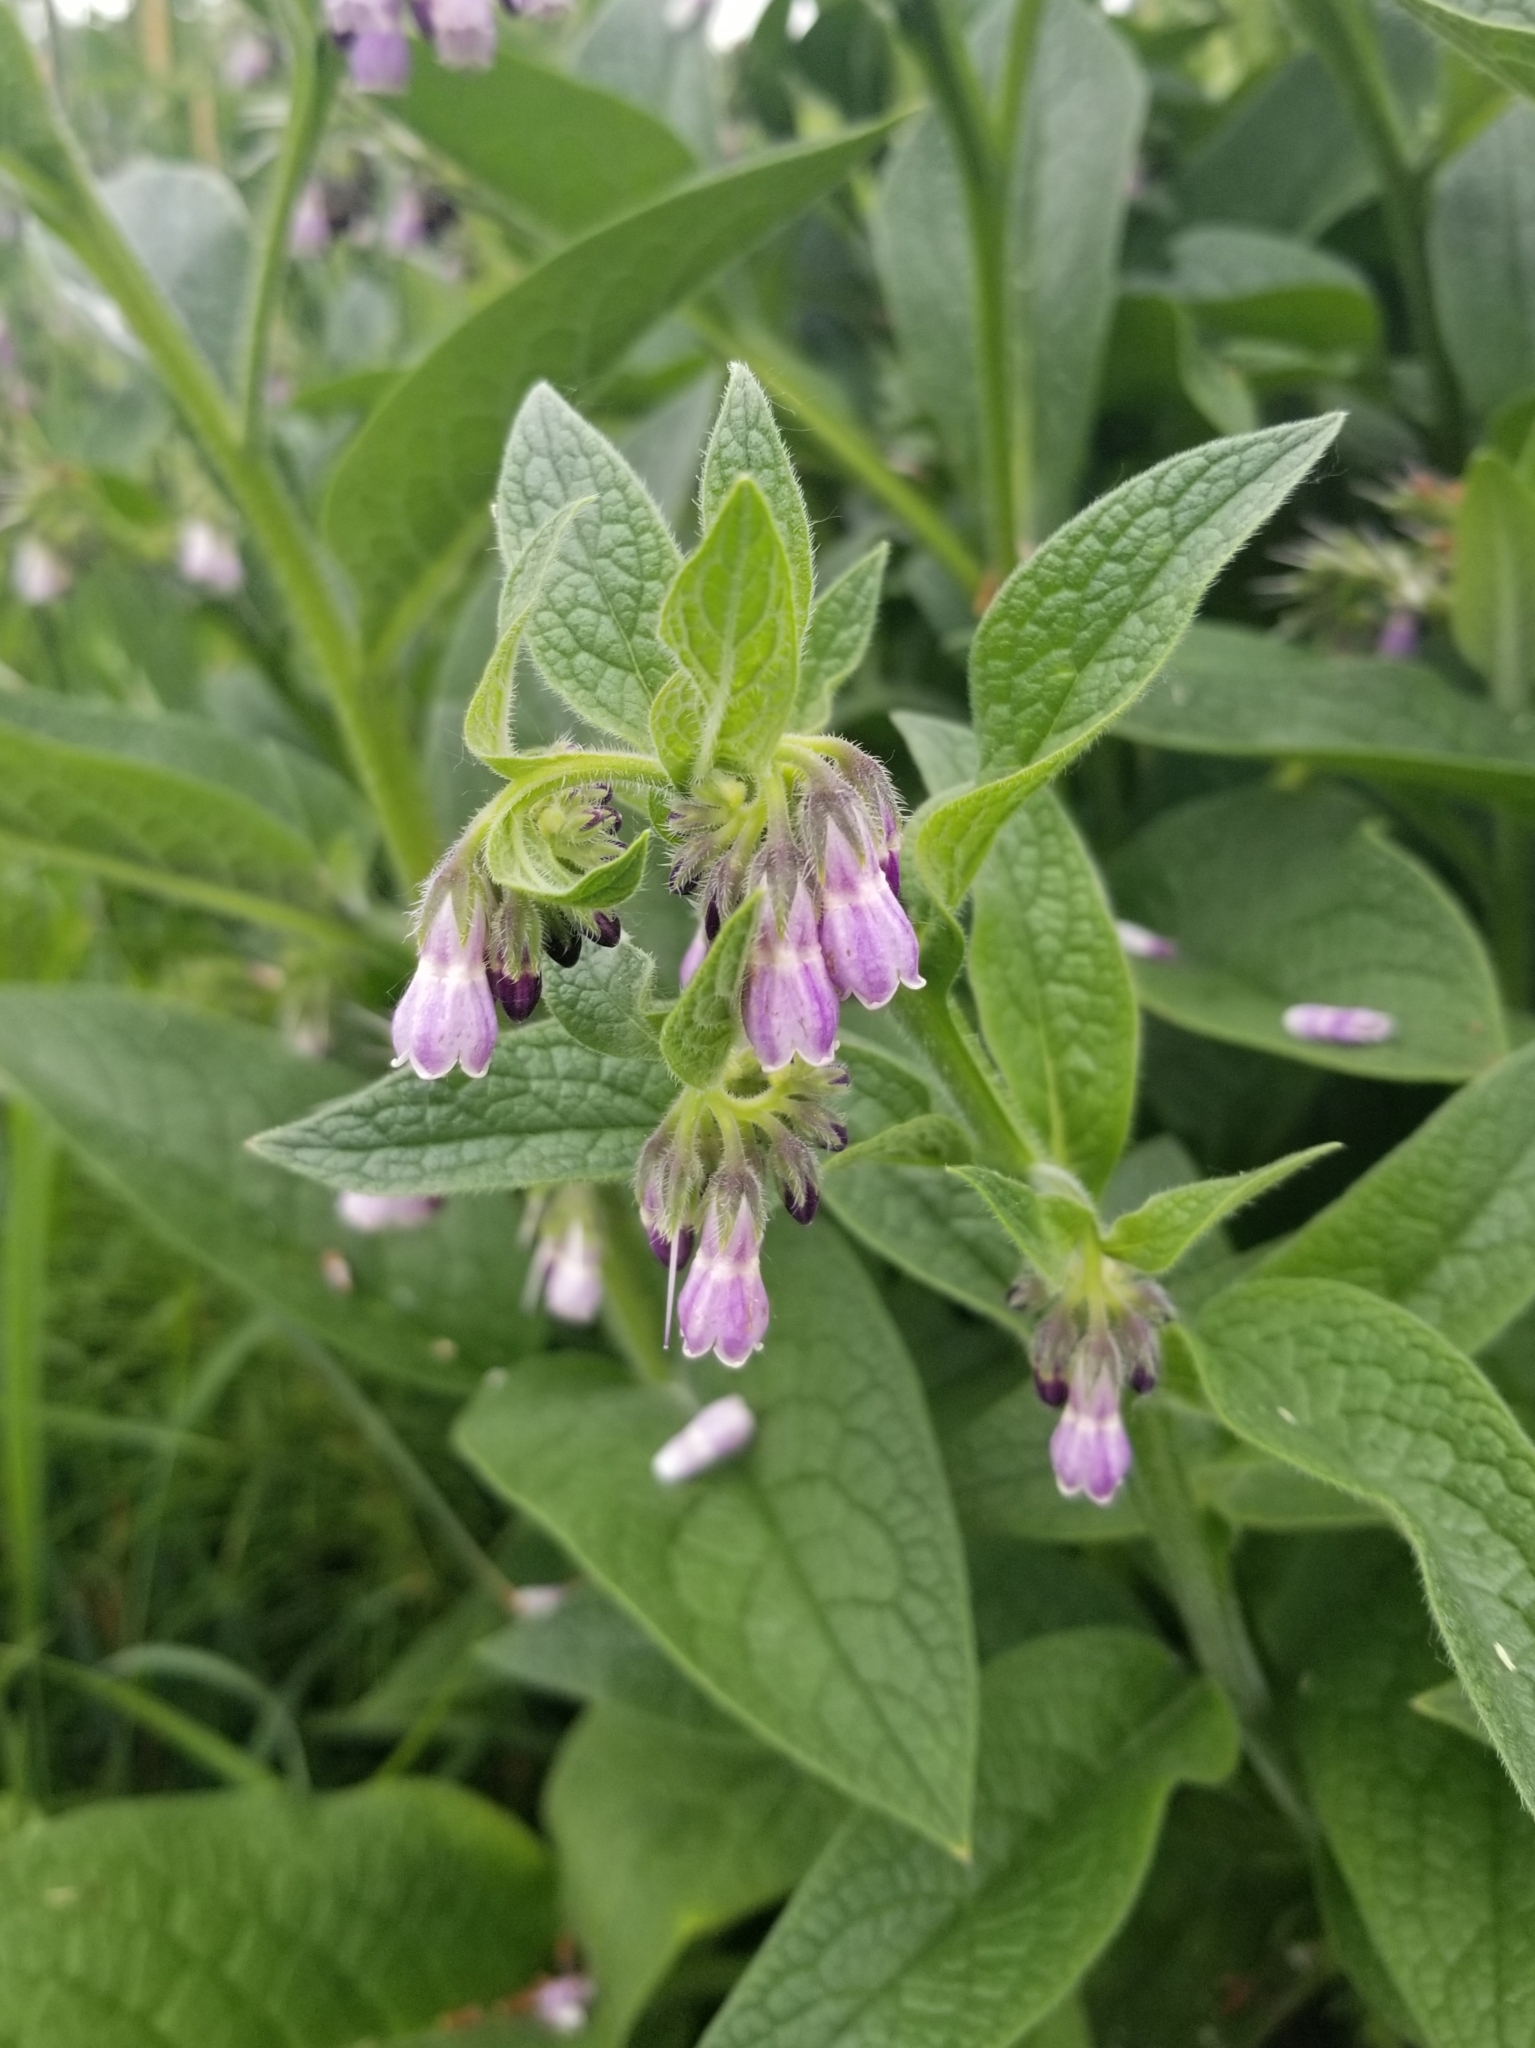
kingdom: Plantae
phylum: Tracheophyta
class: Magnoliopsida
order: Boraginales
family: Boraginaceae
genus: Symphytum
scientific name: Symphytum officinale
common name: Common comfrey
